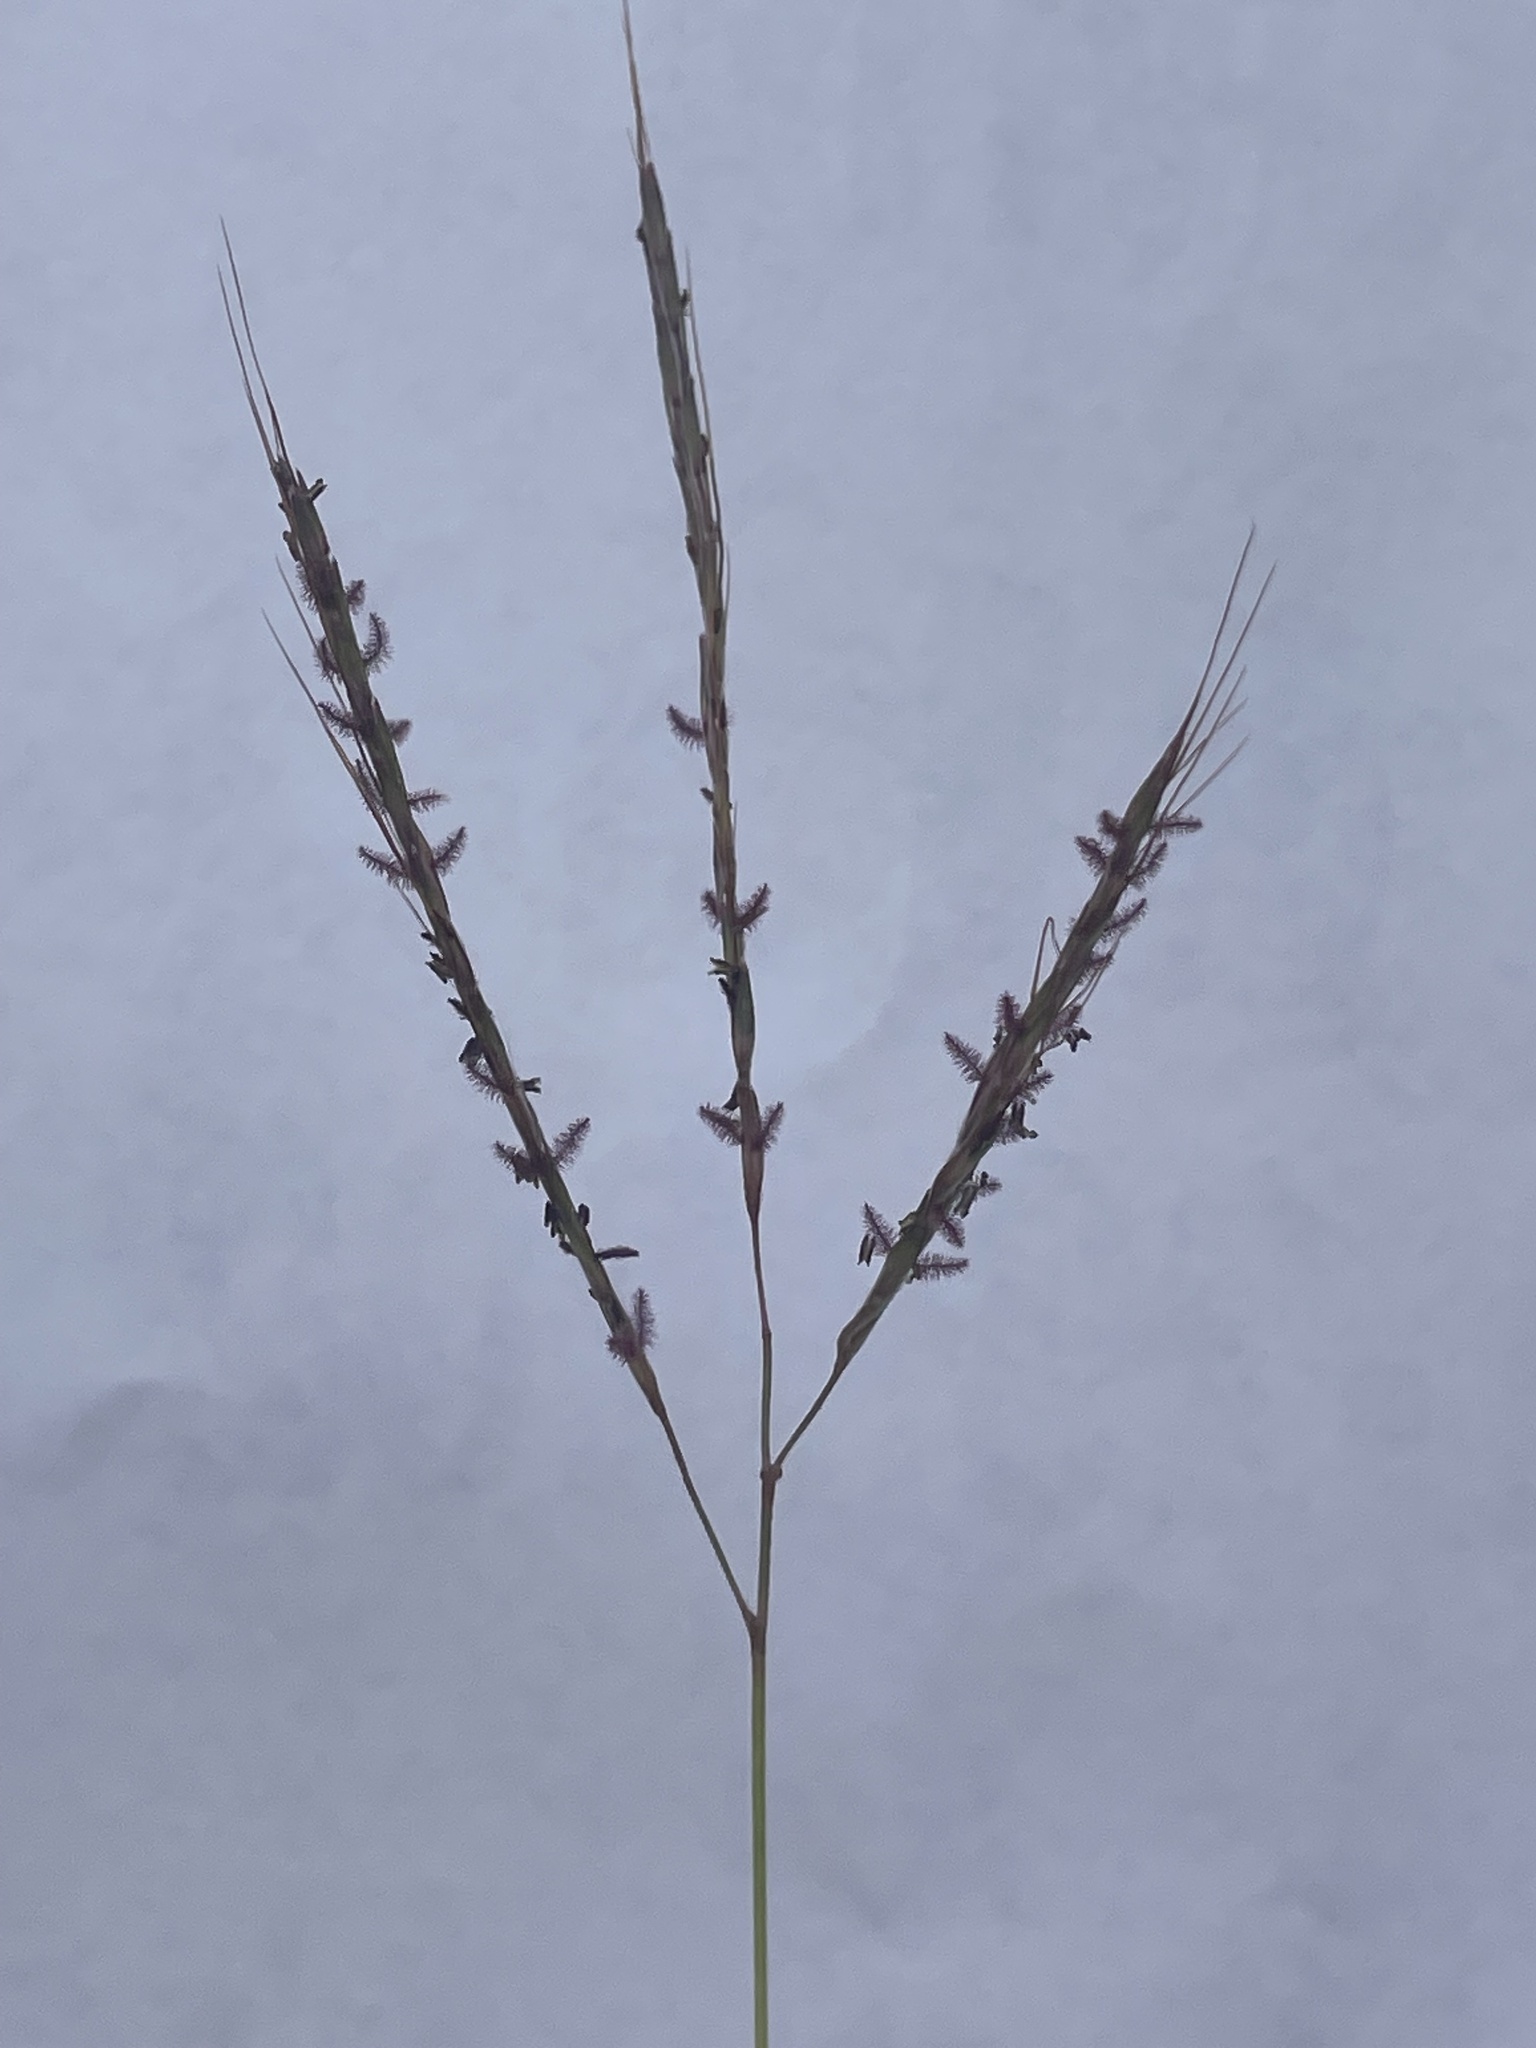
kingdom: Plantae
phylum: Tracheophyta
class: Liliopsida
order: Poales
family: Poaceae
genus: Bothriochloa
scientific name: Bothriochloa ischaemum
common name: Yellow bluestem
